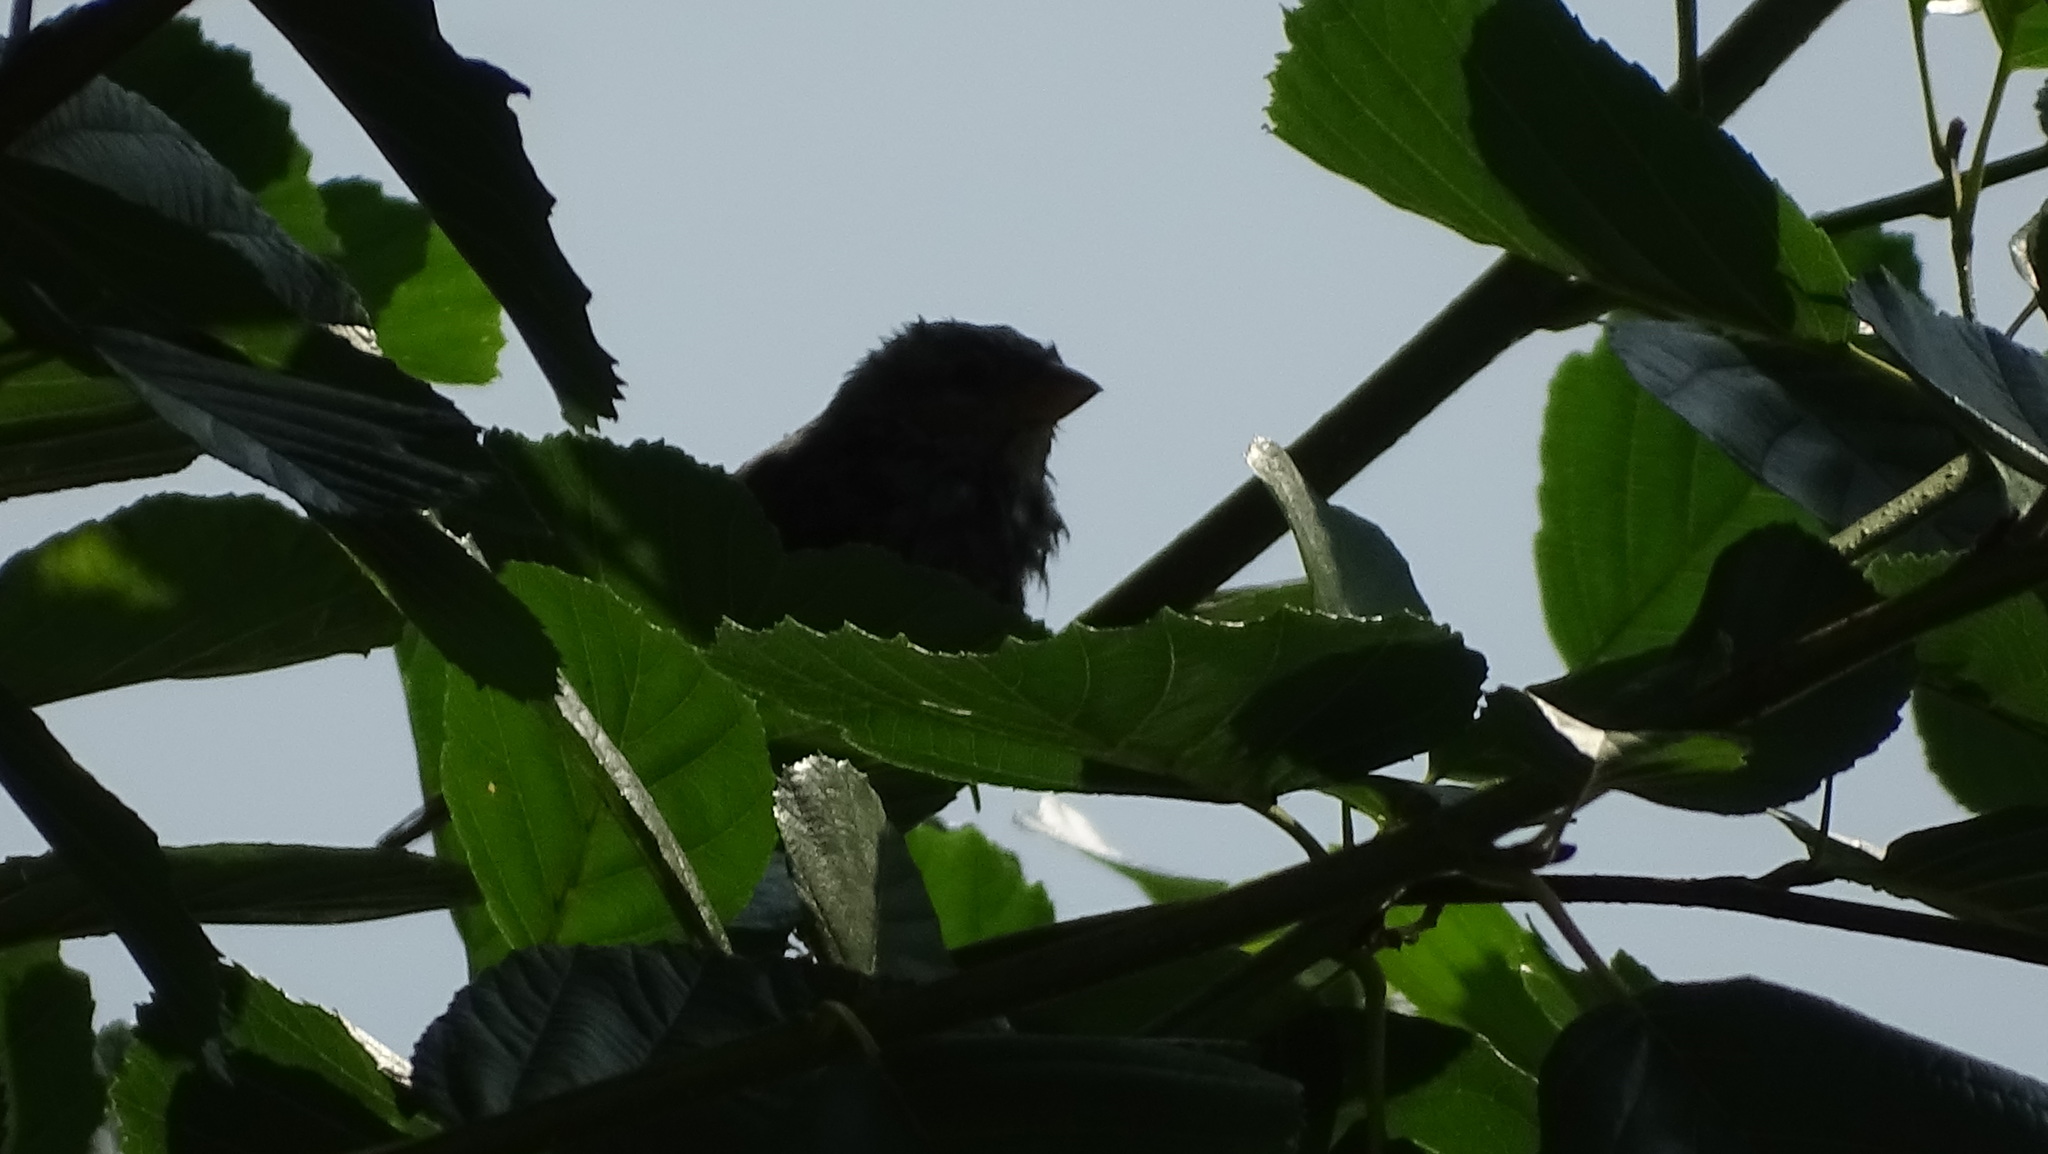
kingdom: Animalia
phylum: Chordata
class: Aves
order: Passeriformes
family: Passeridae
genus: Passer
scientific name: Passer domesticus
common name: House sparrow
